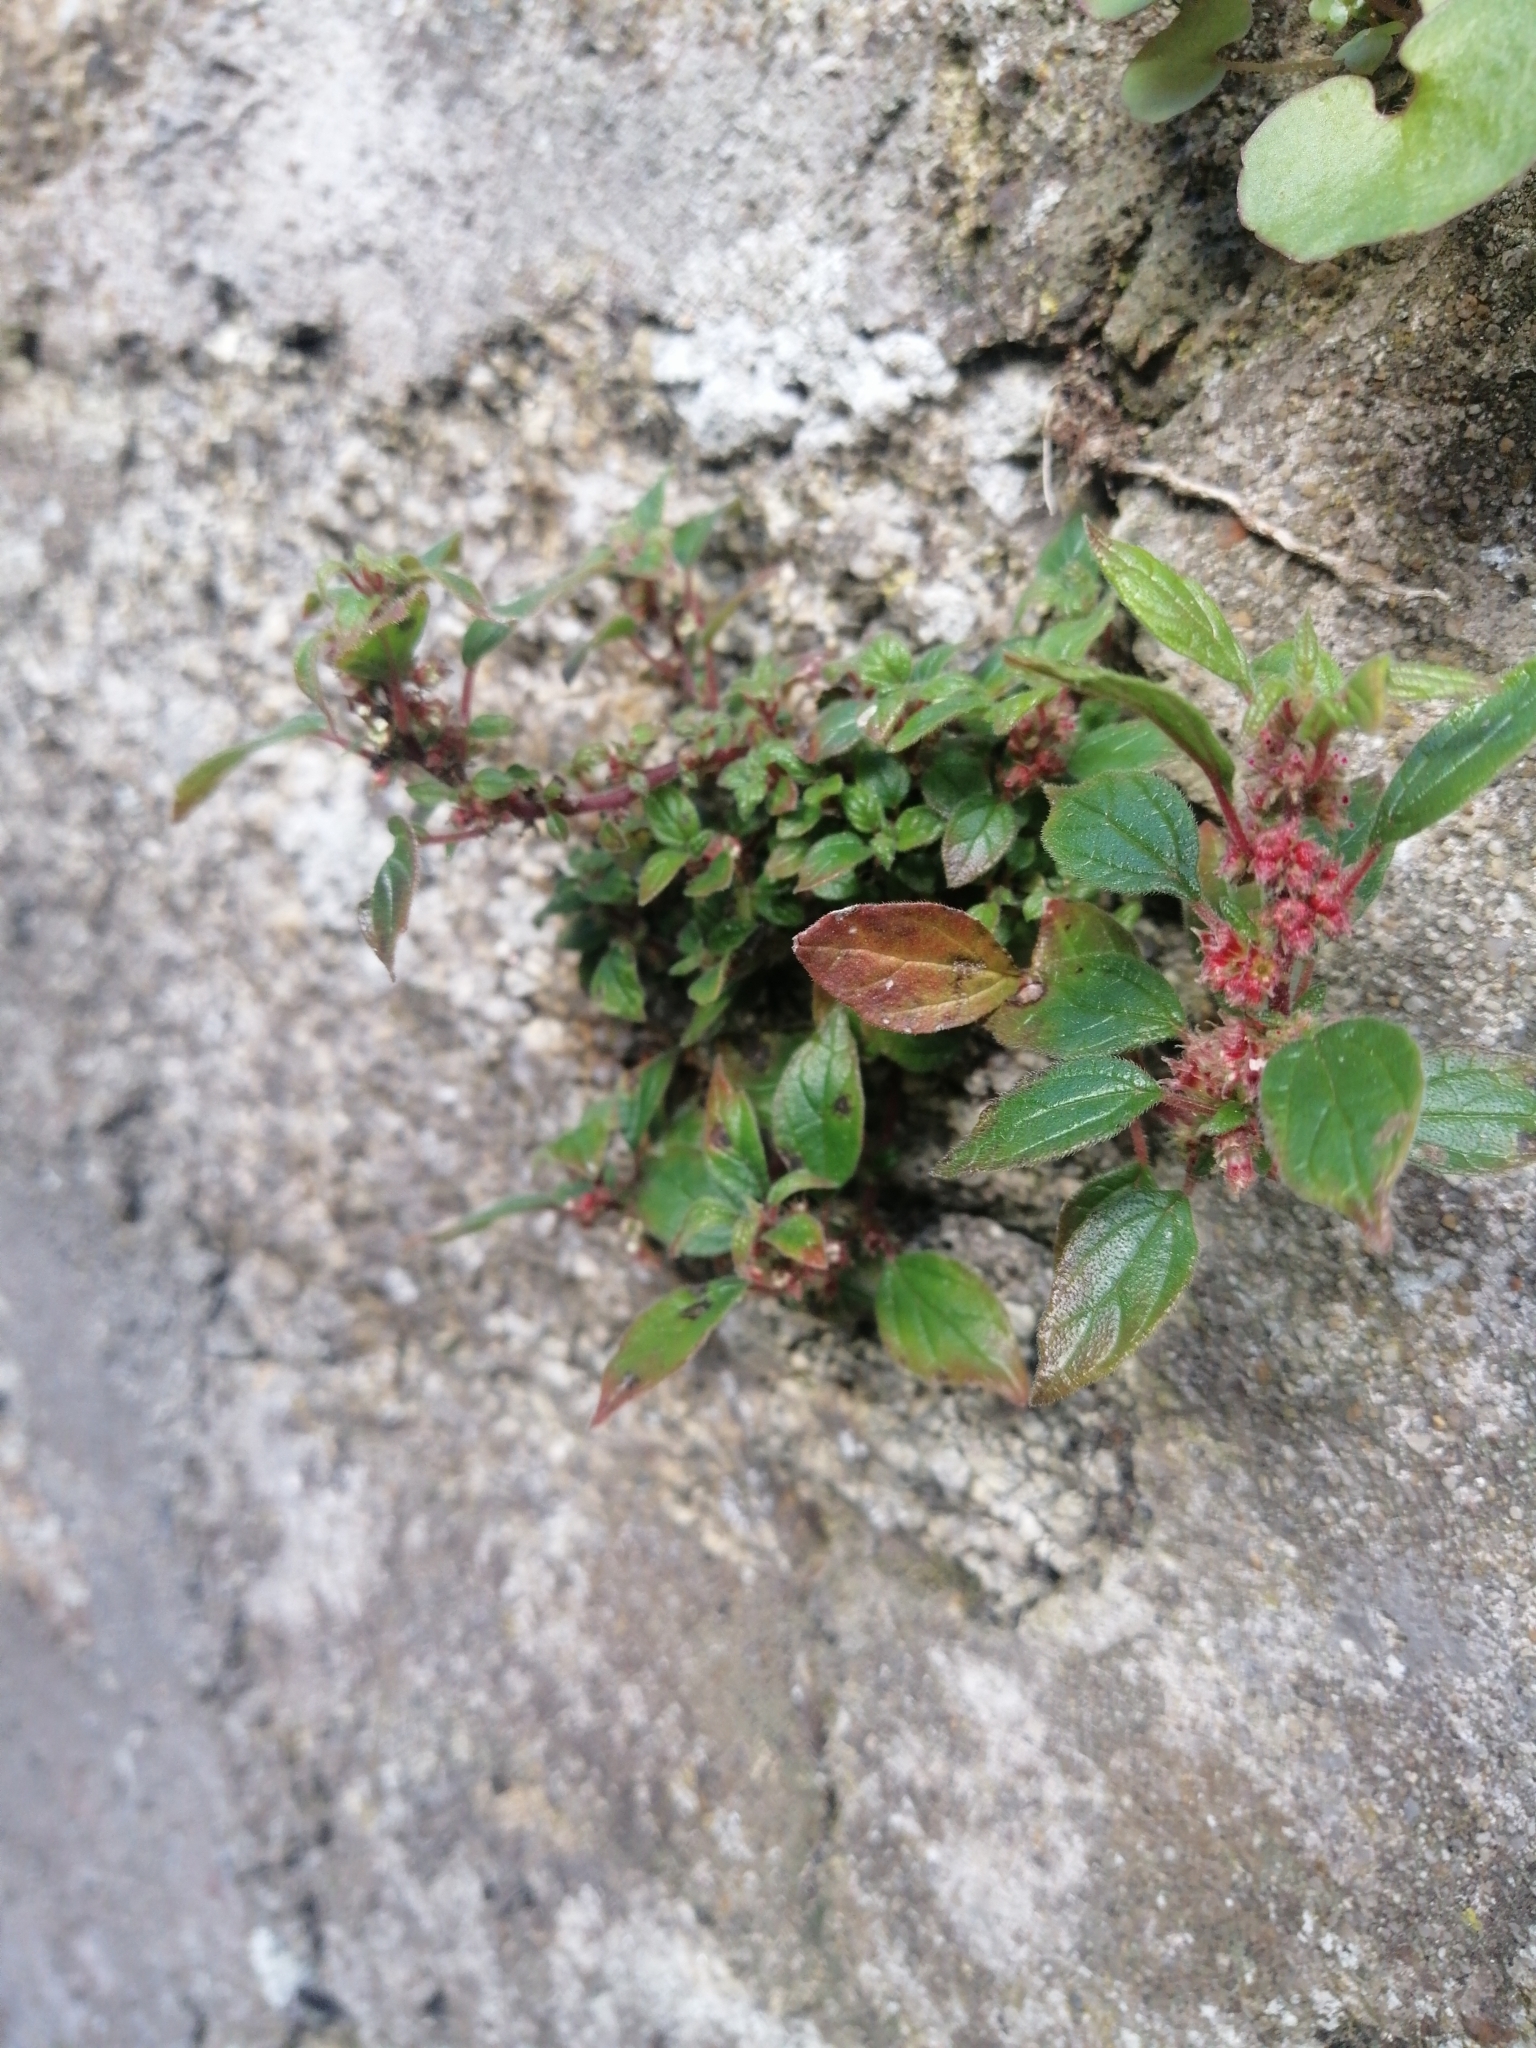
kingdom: Plantae
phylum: Tracheophyta
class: Magnoliopsida
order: Rosales
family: Urticaceae
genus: Parietaria
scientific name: Parietaria judaica
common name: Pellitory-of-the-wall
